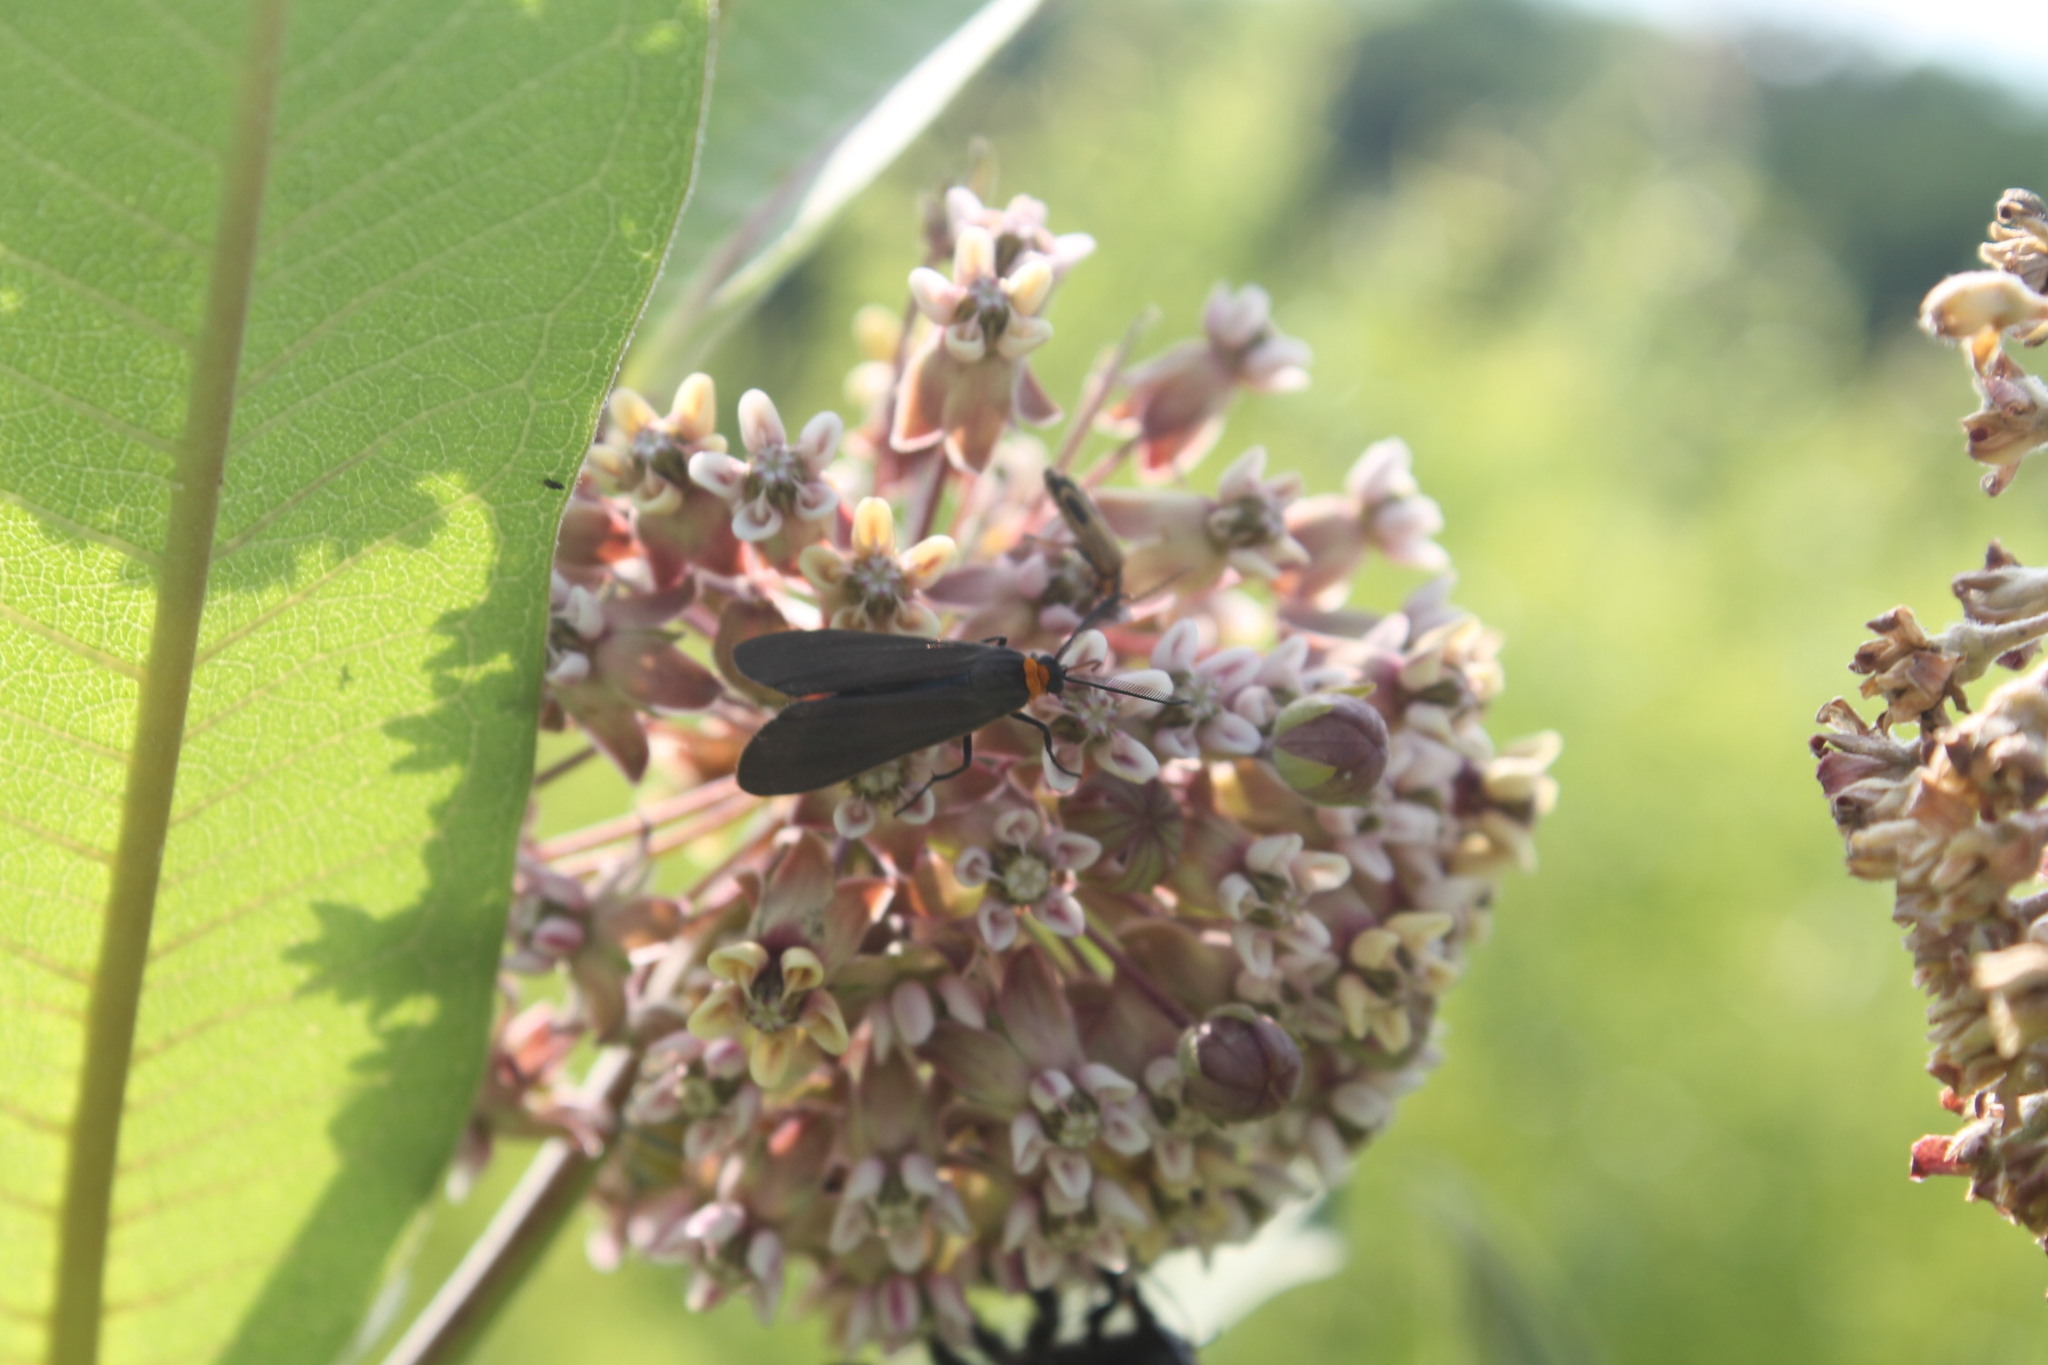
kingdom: Animalia
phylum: Arthropoda
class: Insecta
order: Lepidoptera
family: Erebidae
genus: Cisseps
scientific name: Cisseps fulvicollis
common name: Yellow-collared scape moth
